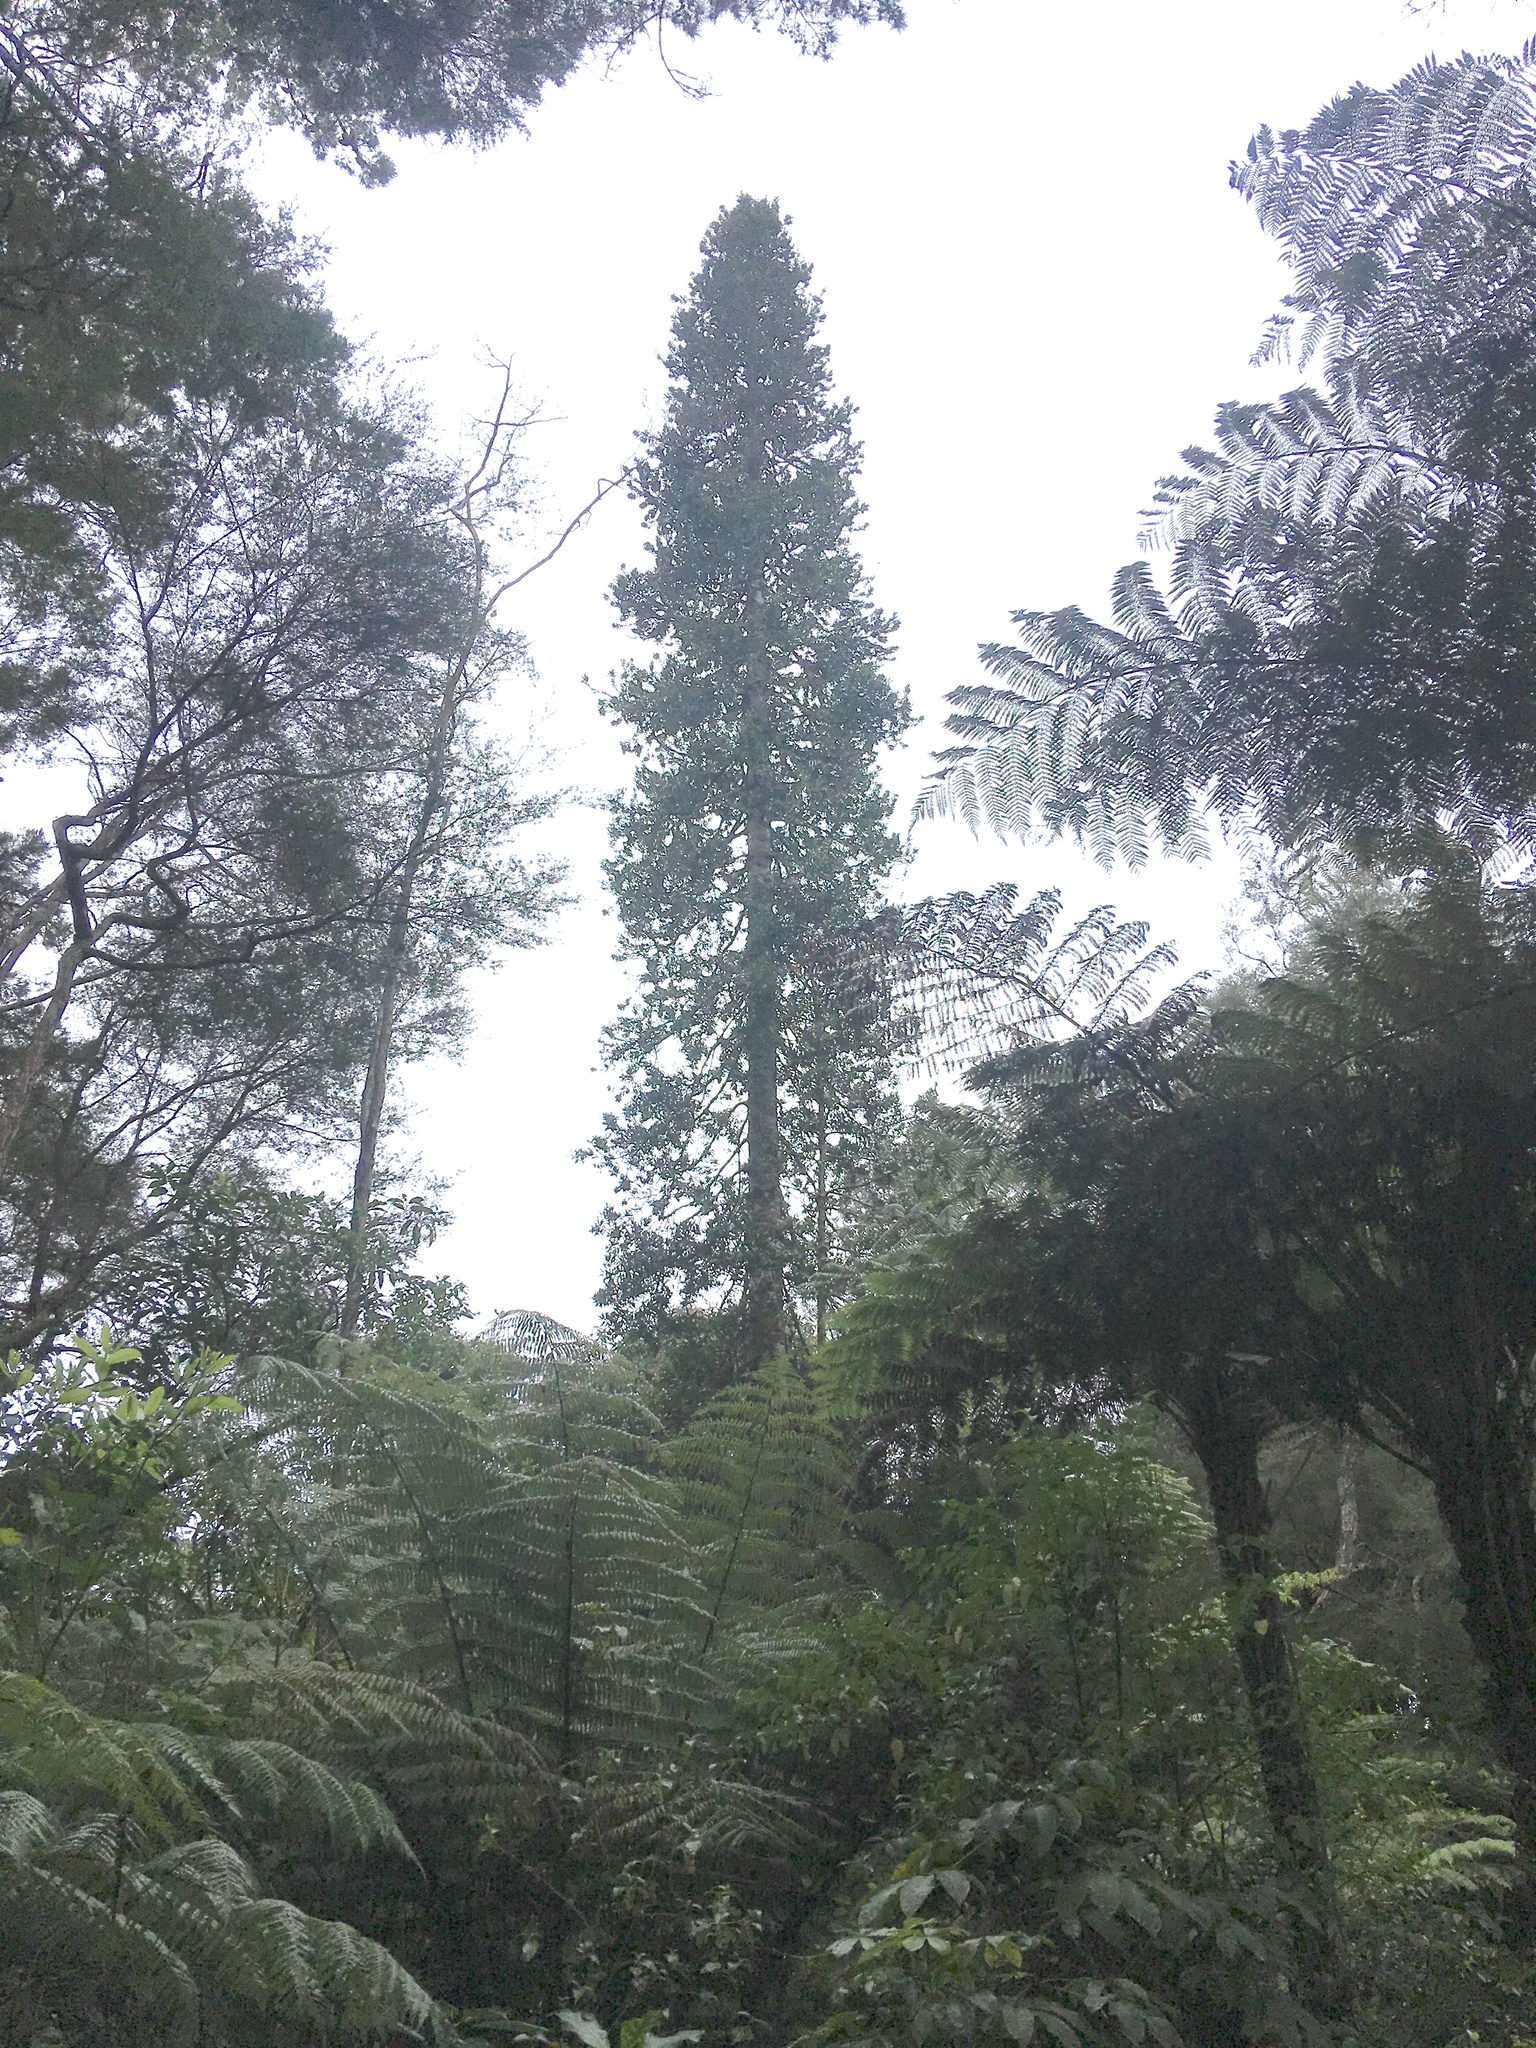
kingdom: Plantae
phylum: Tracheophyta
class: Pinopsida
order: Pinales
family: Araucariaceae
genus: Agathis
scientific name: Agathis australis
